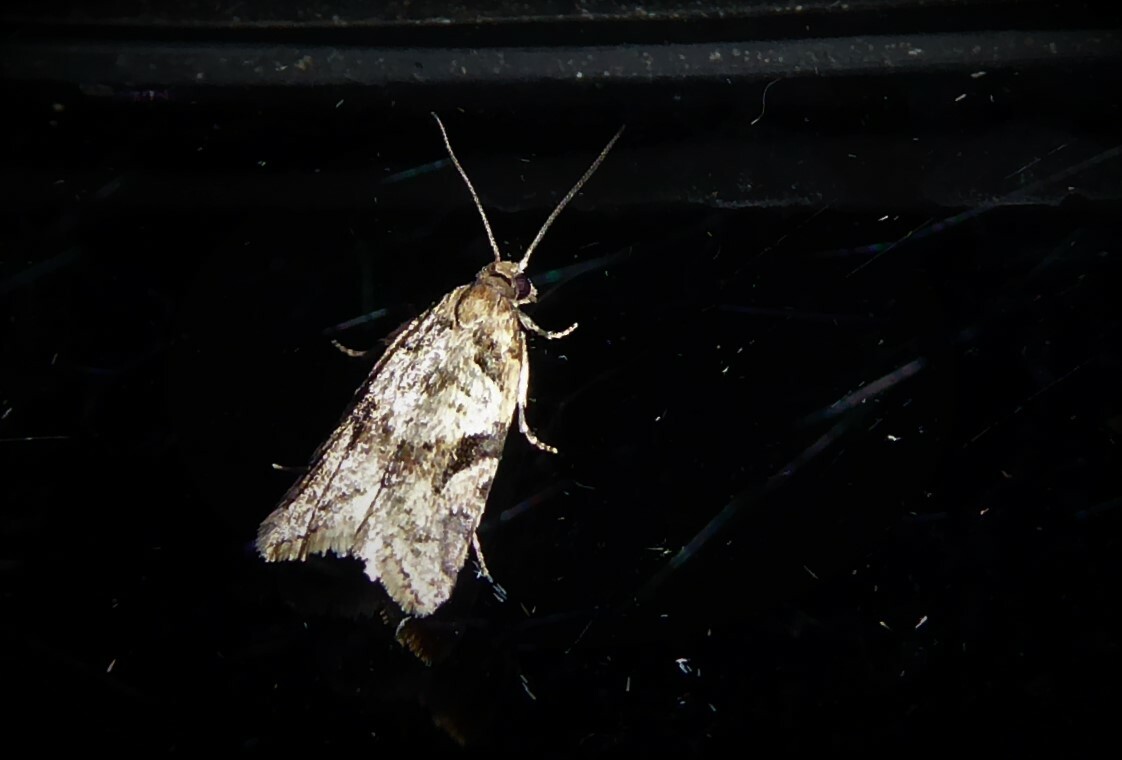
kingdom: Animalia
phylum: Arthropoda
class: Insecta
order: Lepidoptera
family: Tortricidae
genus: Capua
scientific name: Capua semiferana
